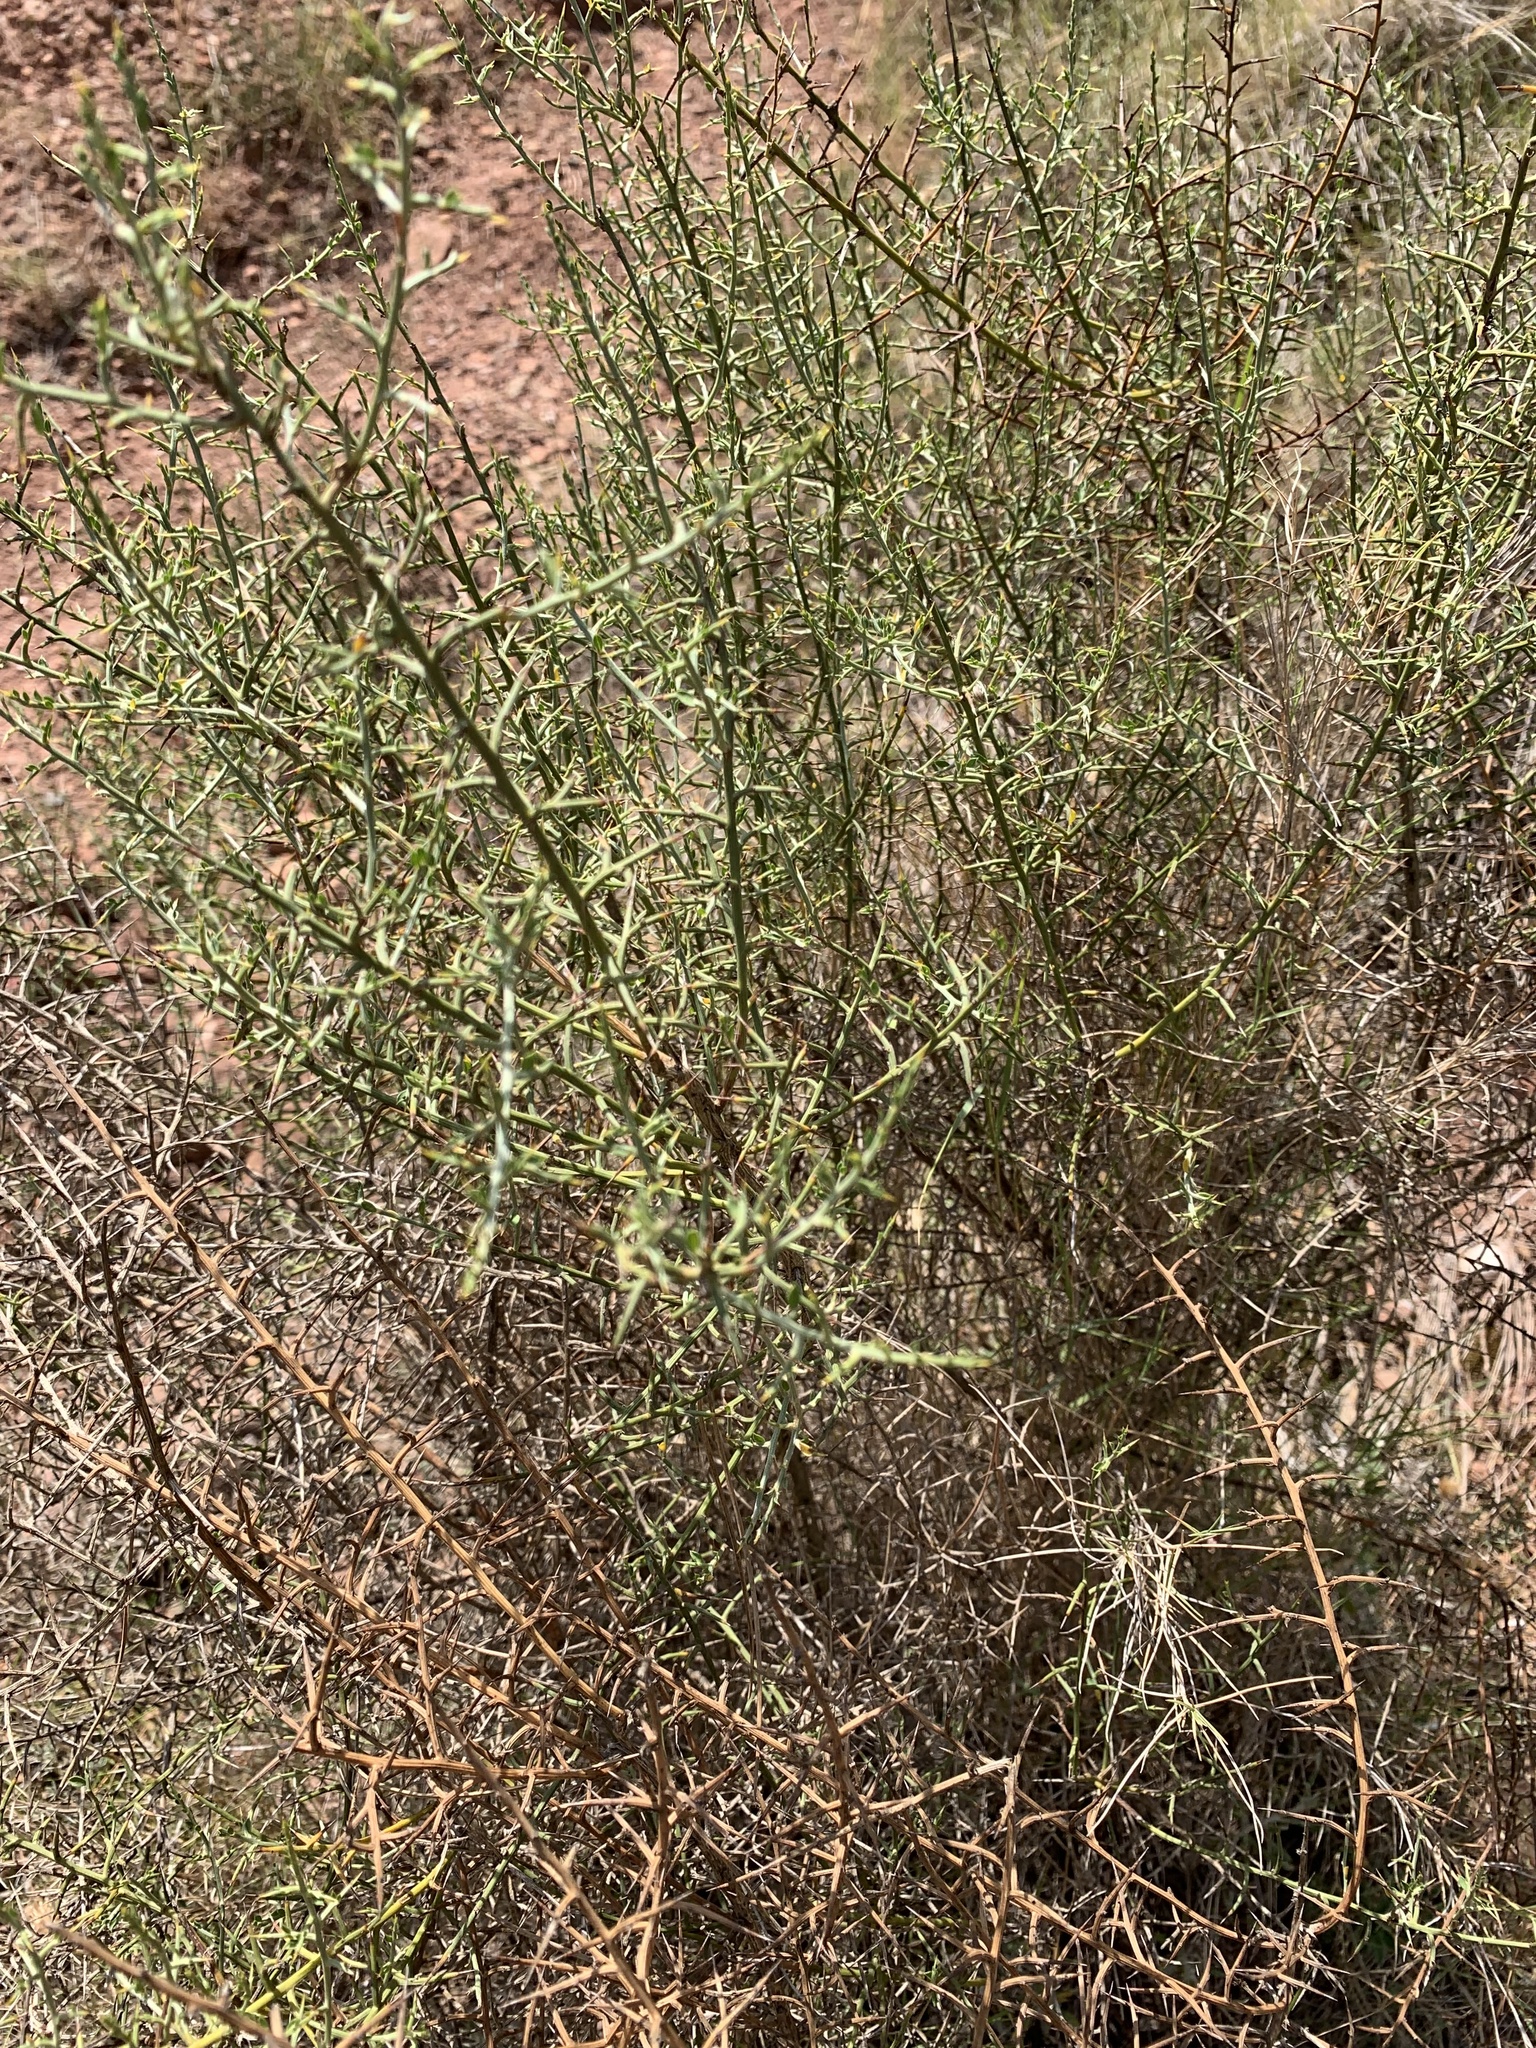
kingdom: Plantae
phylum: Tracheophyta
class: Magnoliopsida
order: Fabales
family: Fabaceae
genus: Genista
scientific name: Genista scorpius
